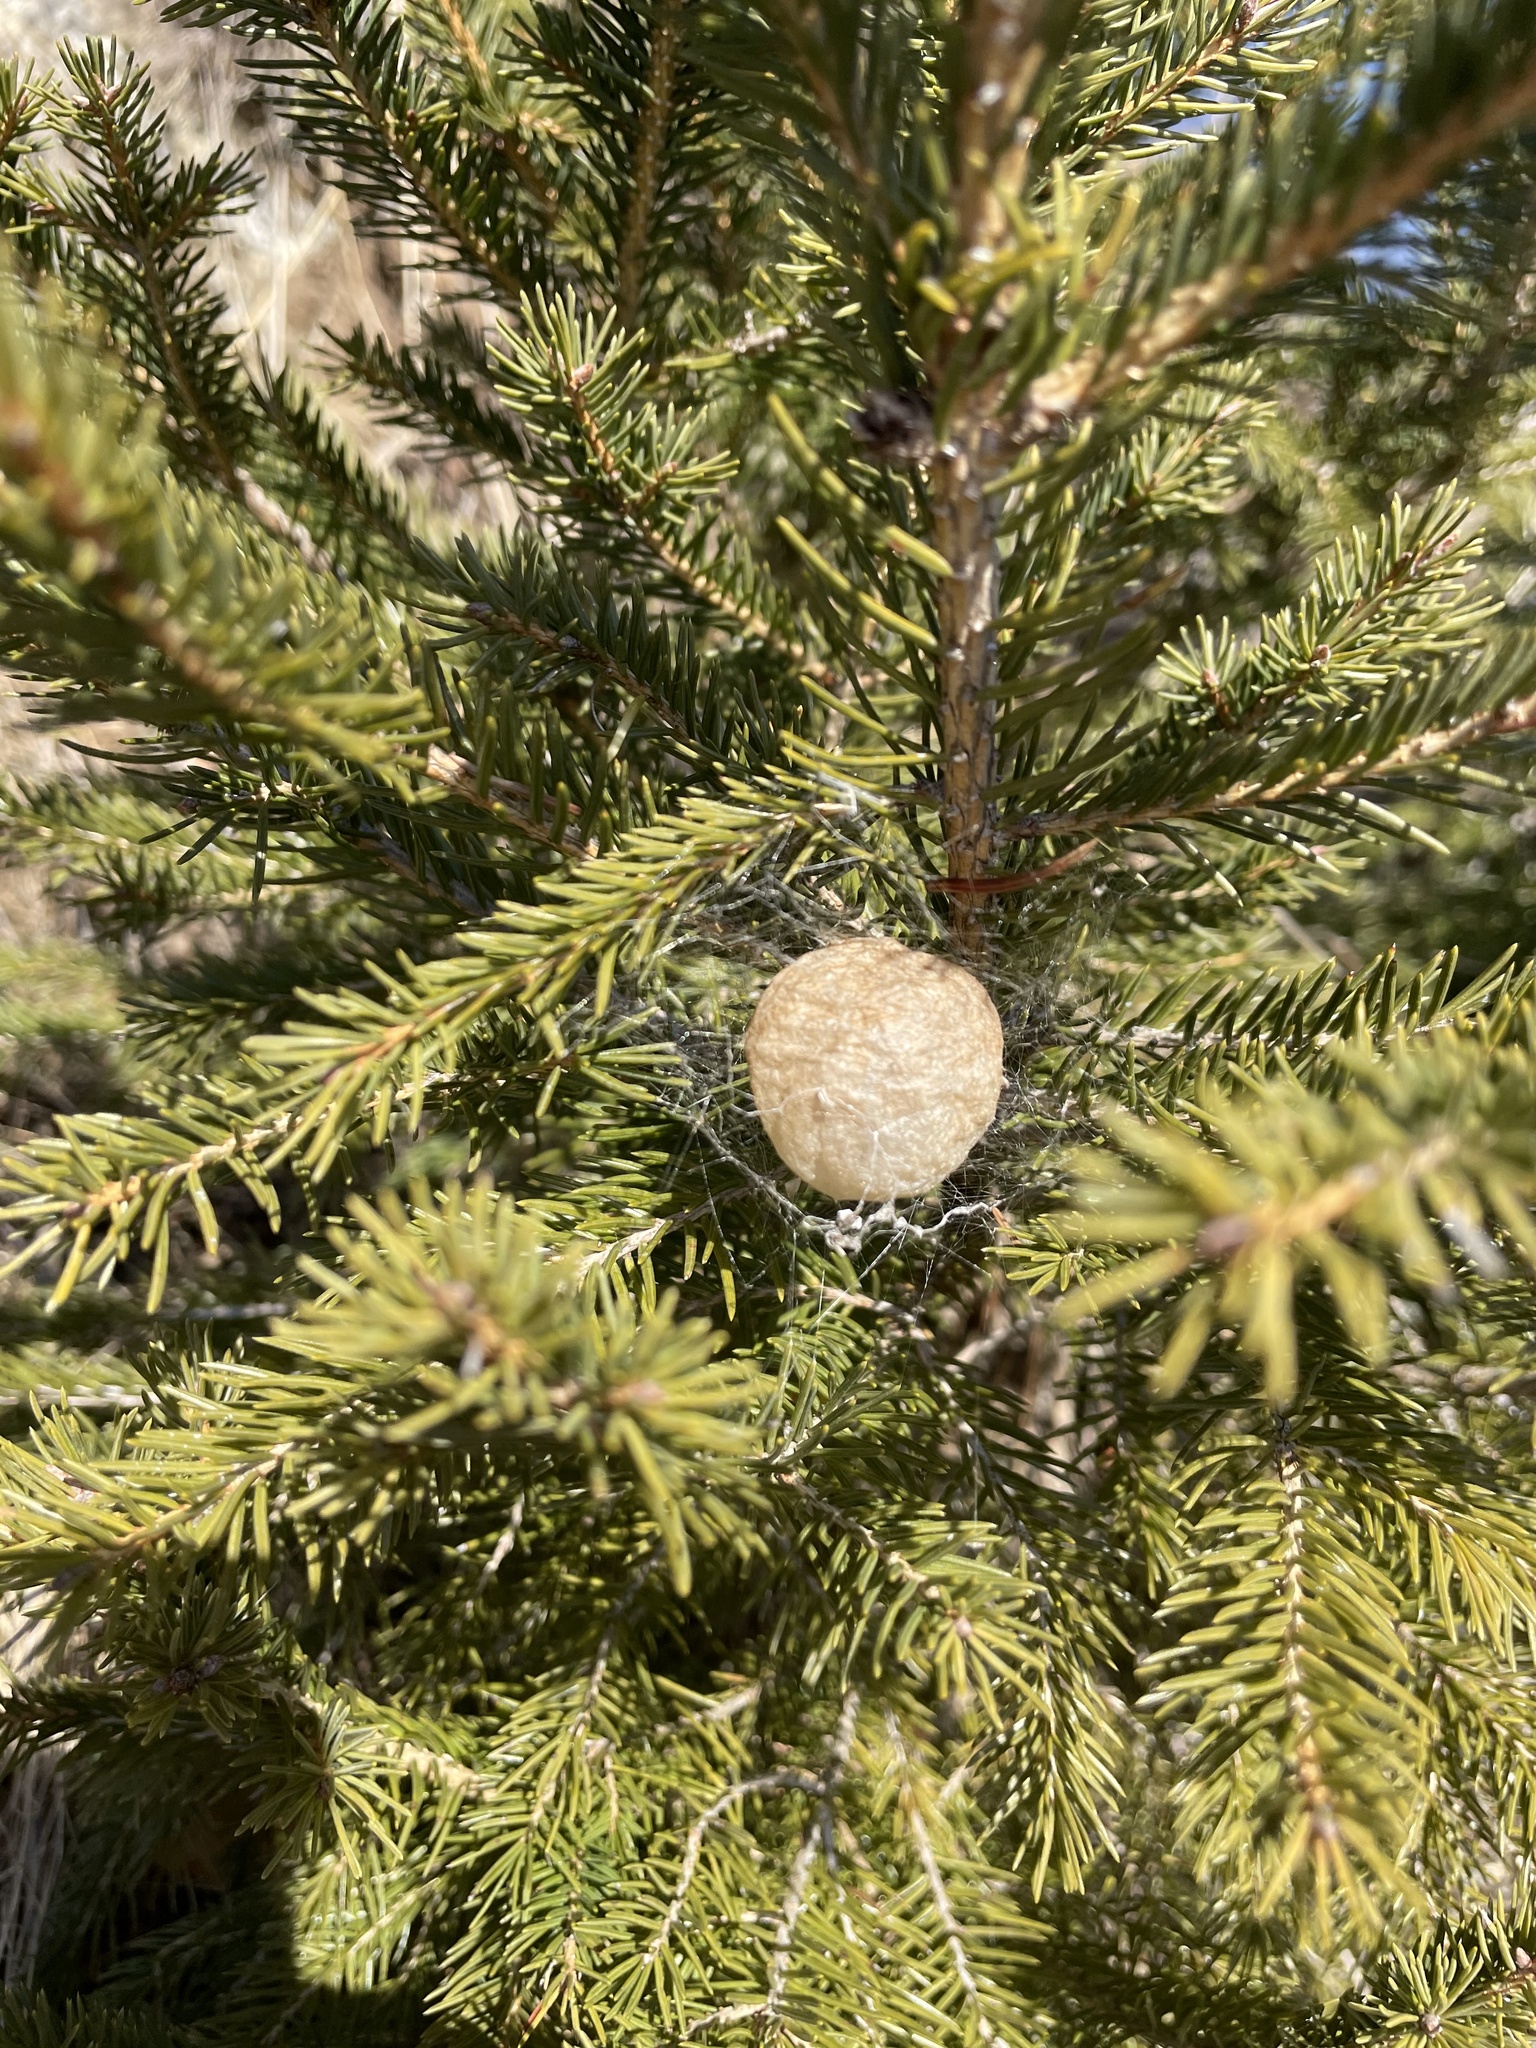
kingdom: Animalia
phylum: Arthropoda
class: Arachnida
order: Araneae
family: Araneidae
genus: Argiope
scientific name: Argiope bruennichi
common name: Wasp spider
